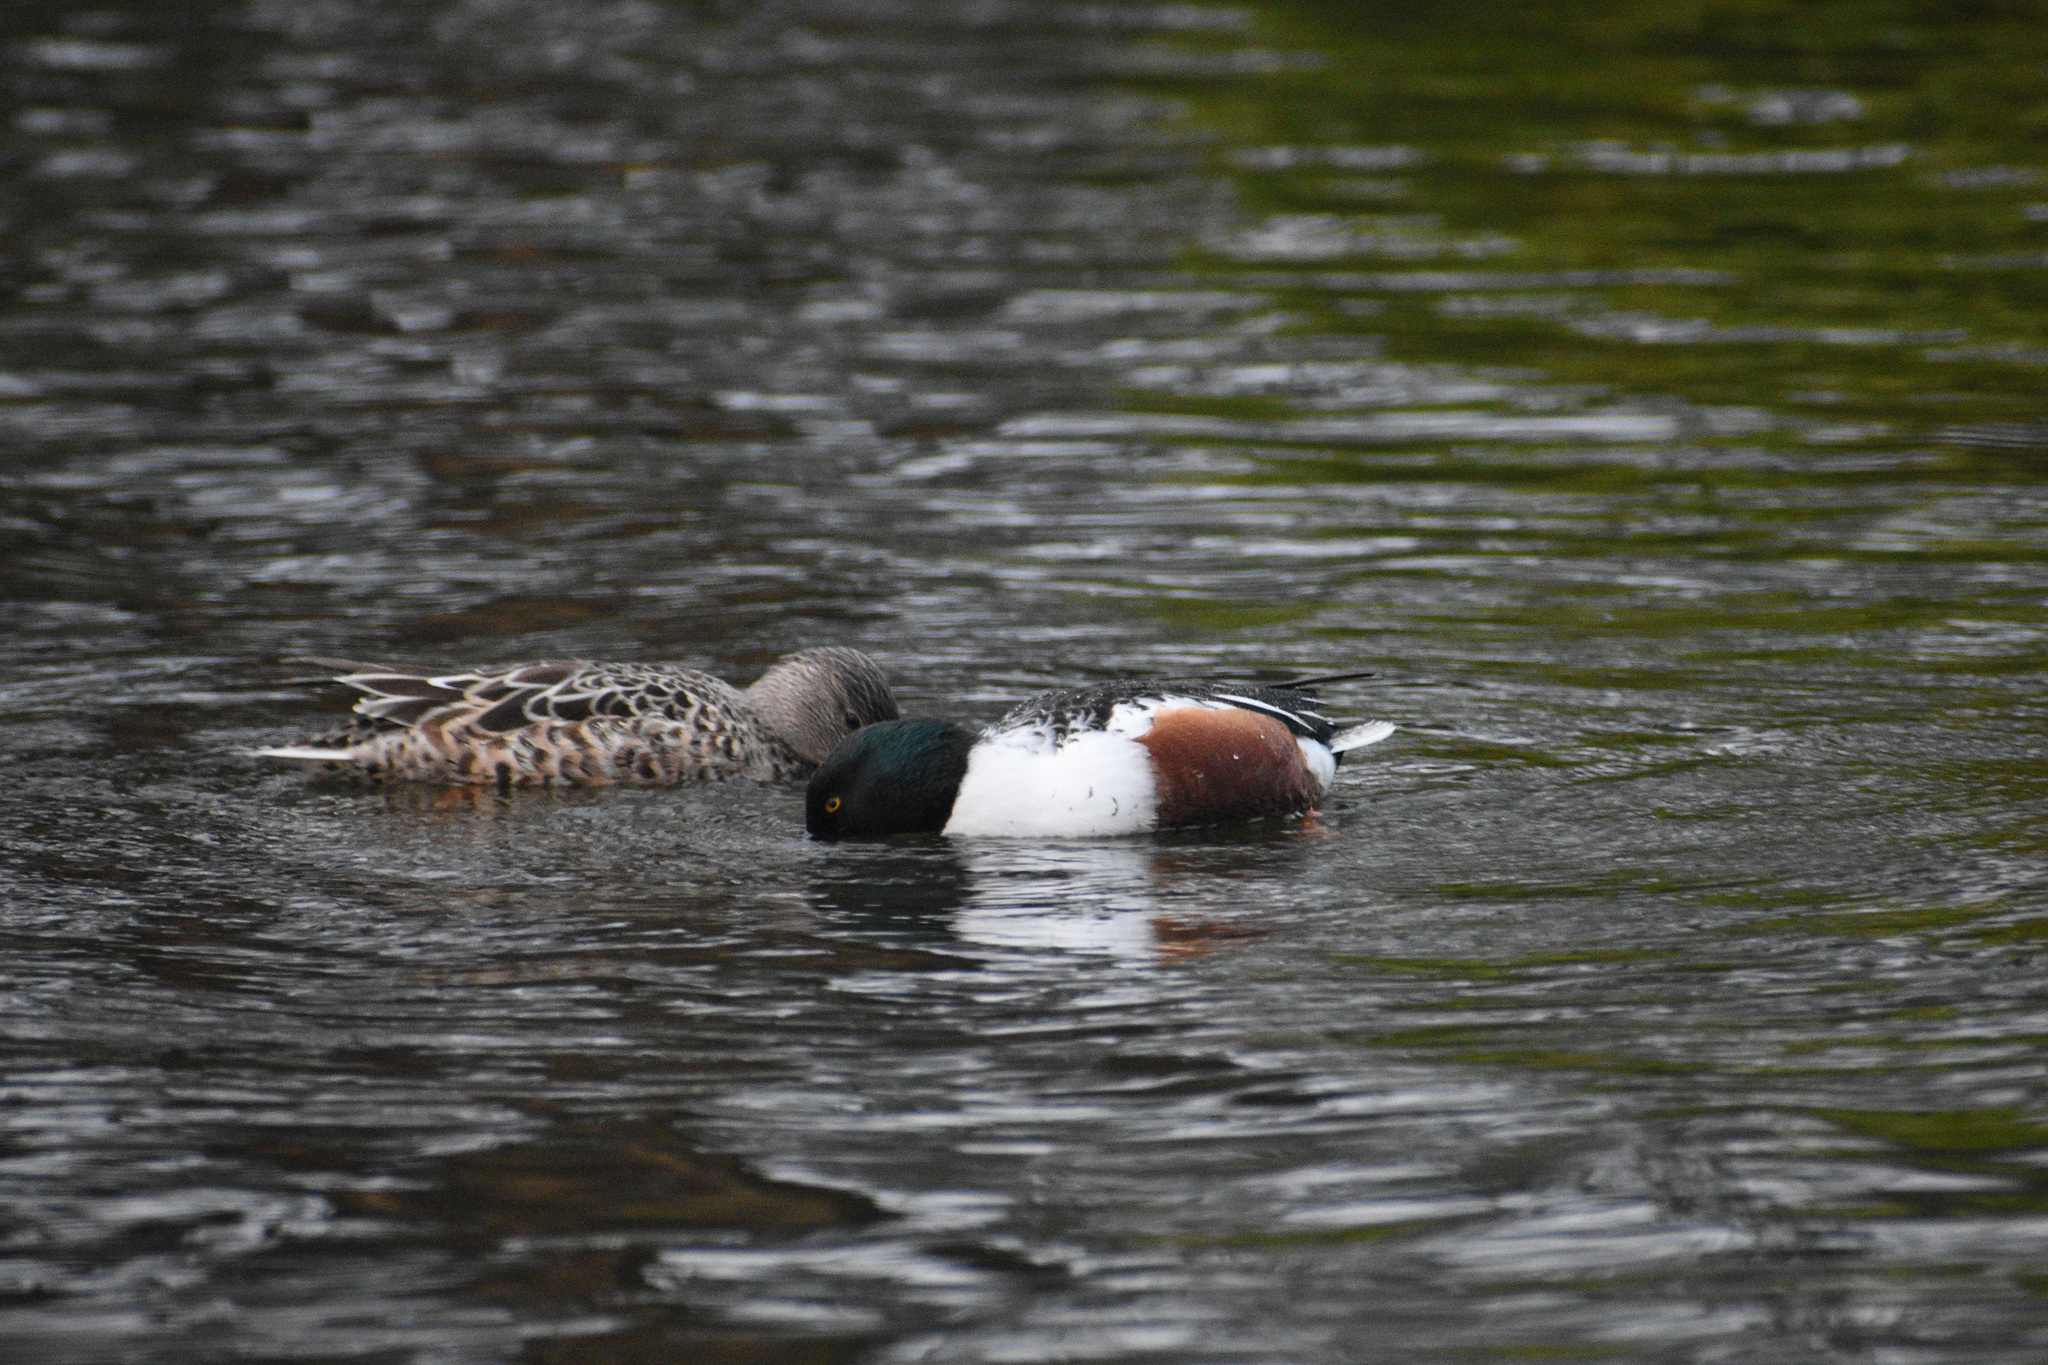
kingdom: Animalia
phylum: Chordata
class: Aves
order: Anseriformes
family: Anatidae
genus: Spatula
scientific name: Spatula clypeata
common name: Northern shoveler
